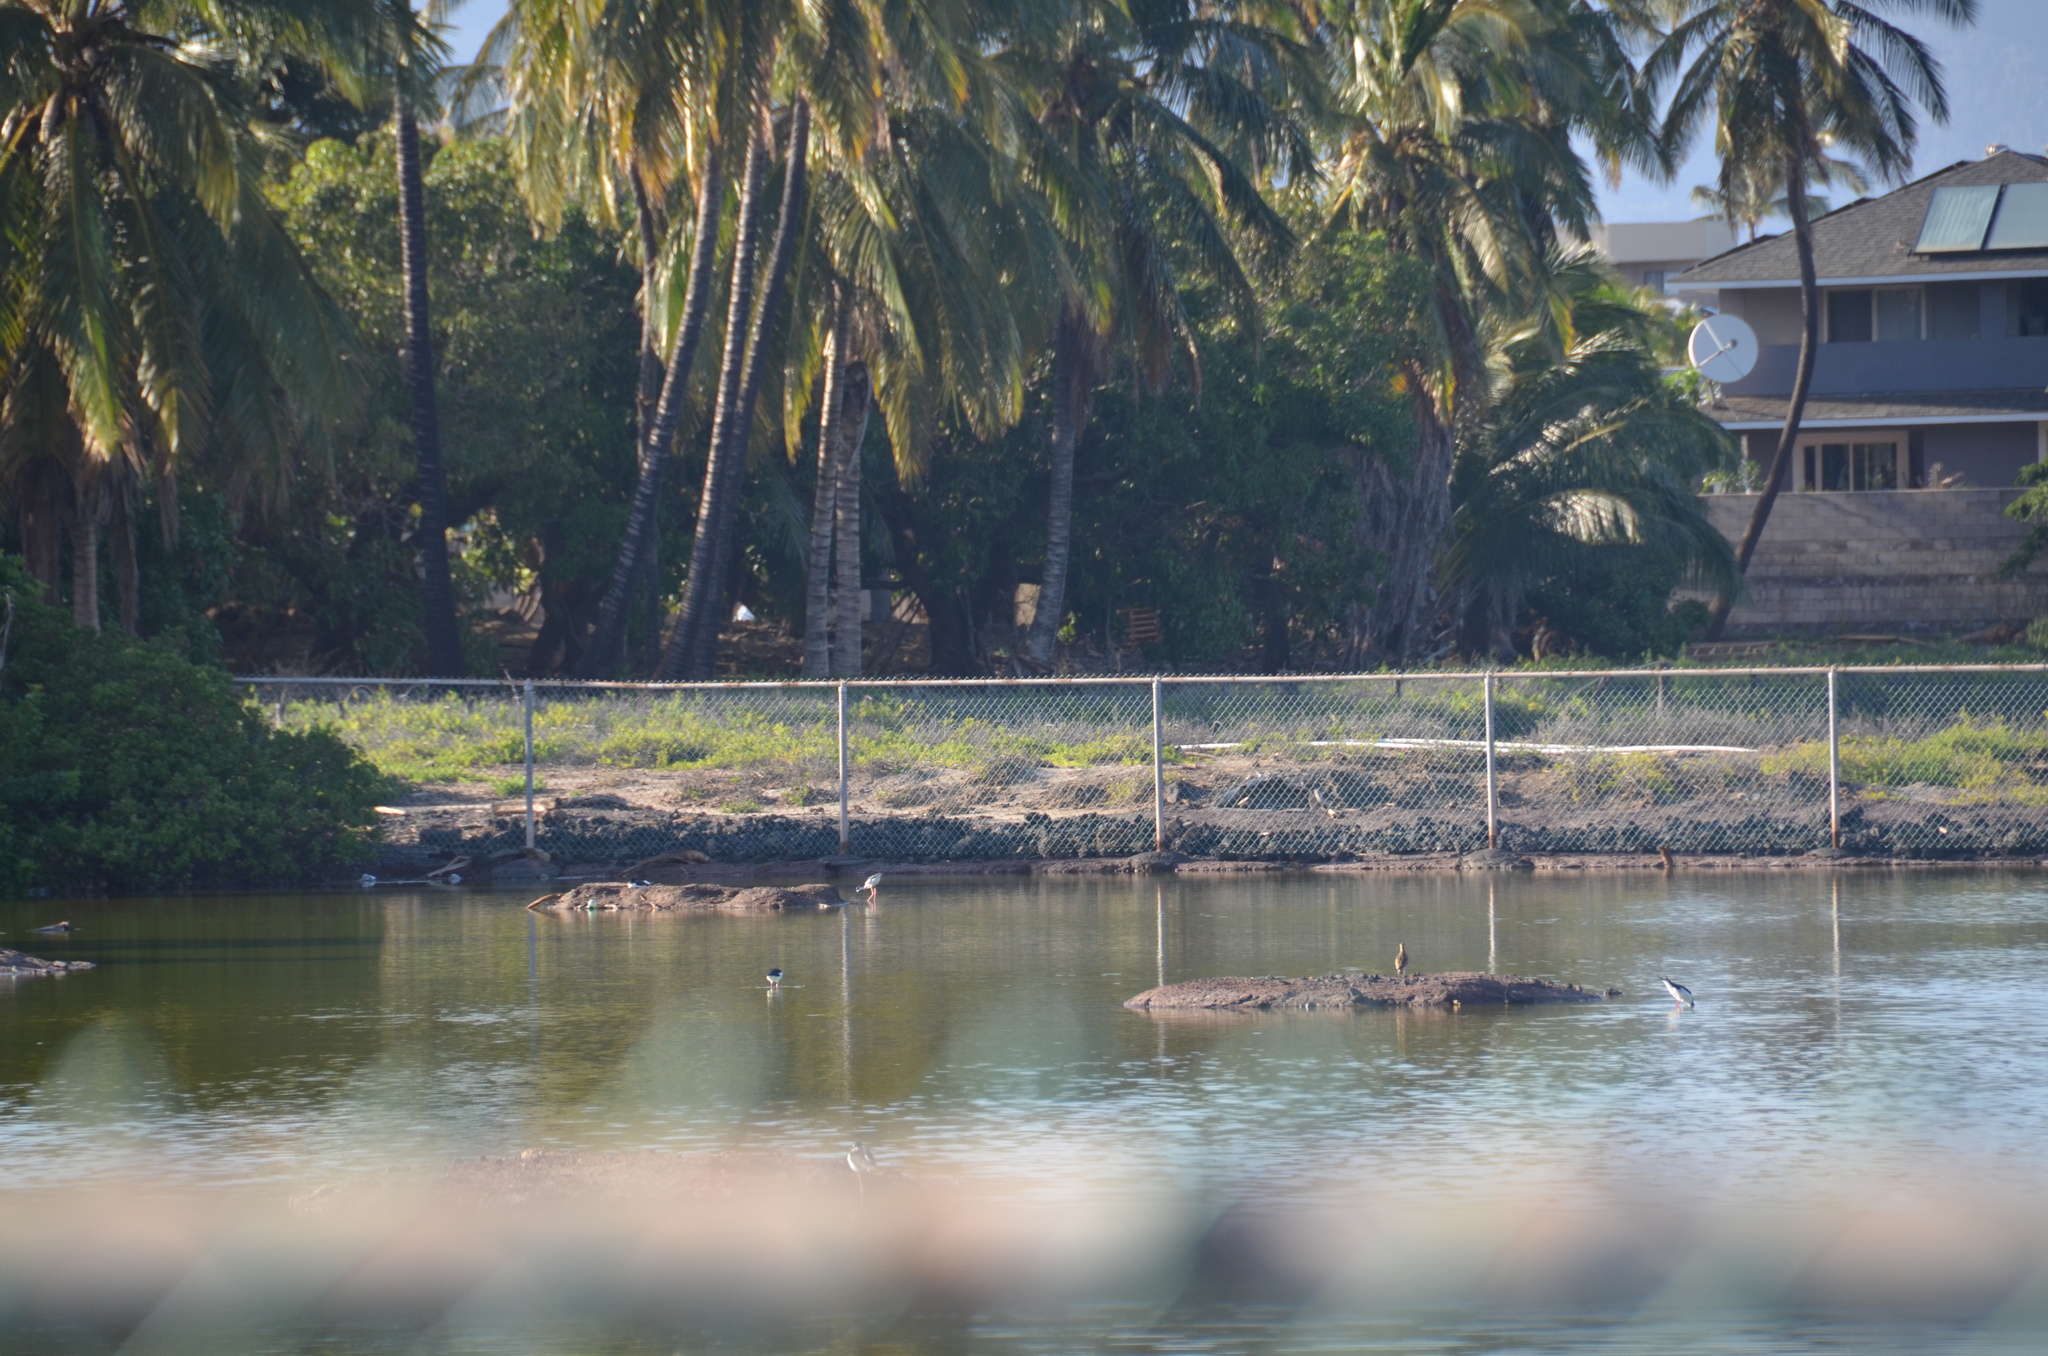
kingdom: Animalia
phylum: Chordata
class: Aves
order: Charadriiformes
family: Charadriidae
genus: Pluvialis
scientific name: Pluvialis fulva
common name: Pacific golden plover
